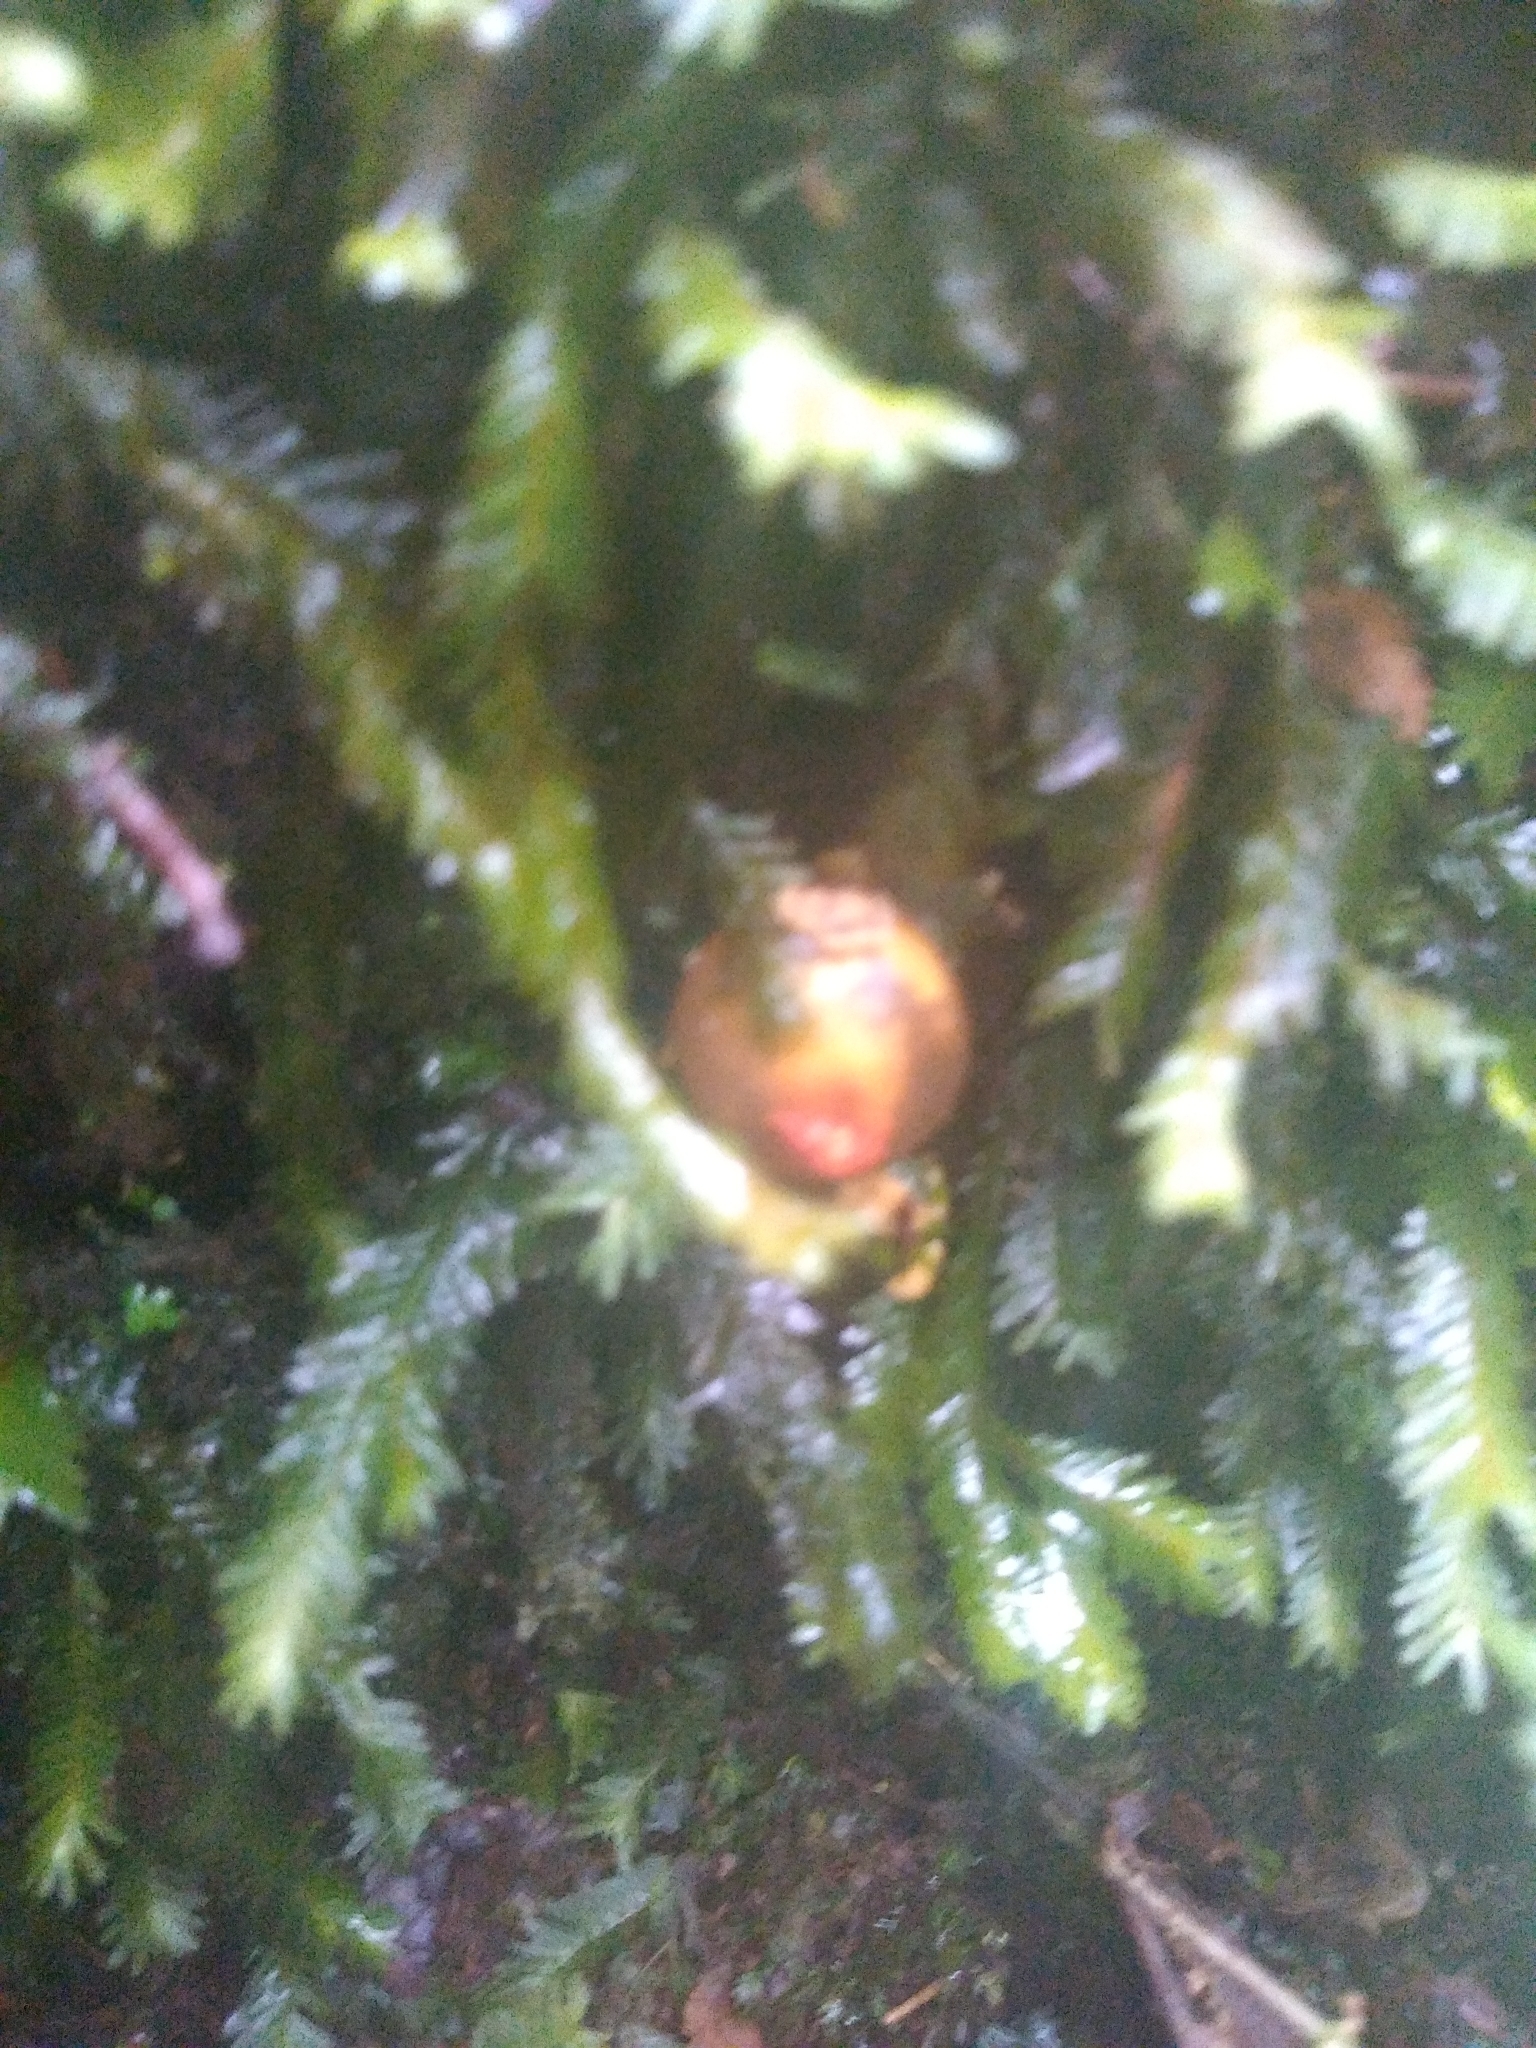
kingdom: Fungi
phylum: Basidiomycota
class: Agaricomycetes
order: Boletales
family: Calostomataceae
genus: Calostoma
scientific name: Calostoma cinnabarinum
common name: Stalked puffball-in-aspic
